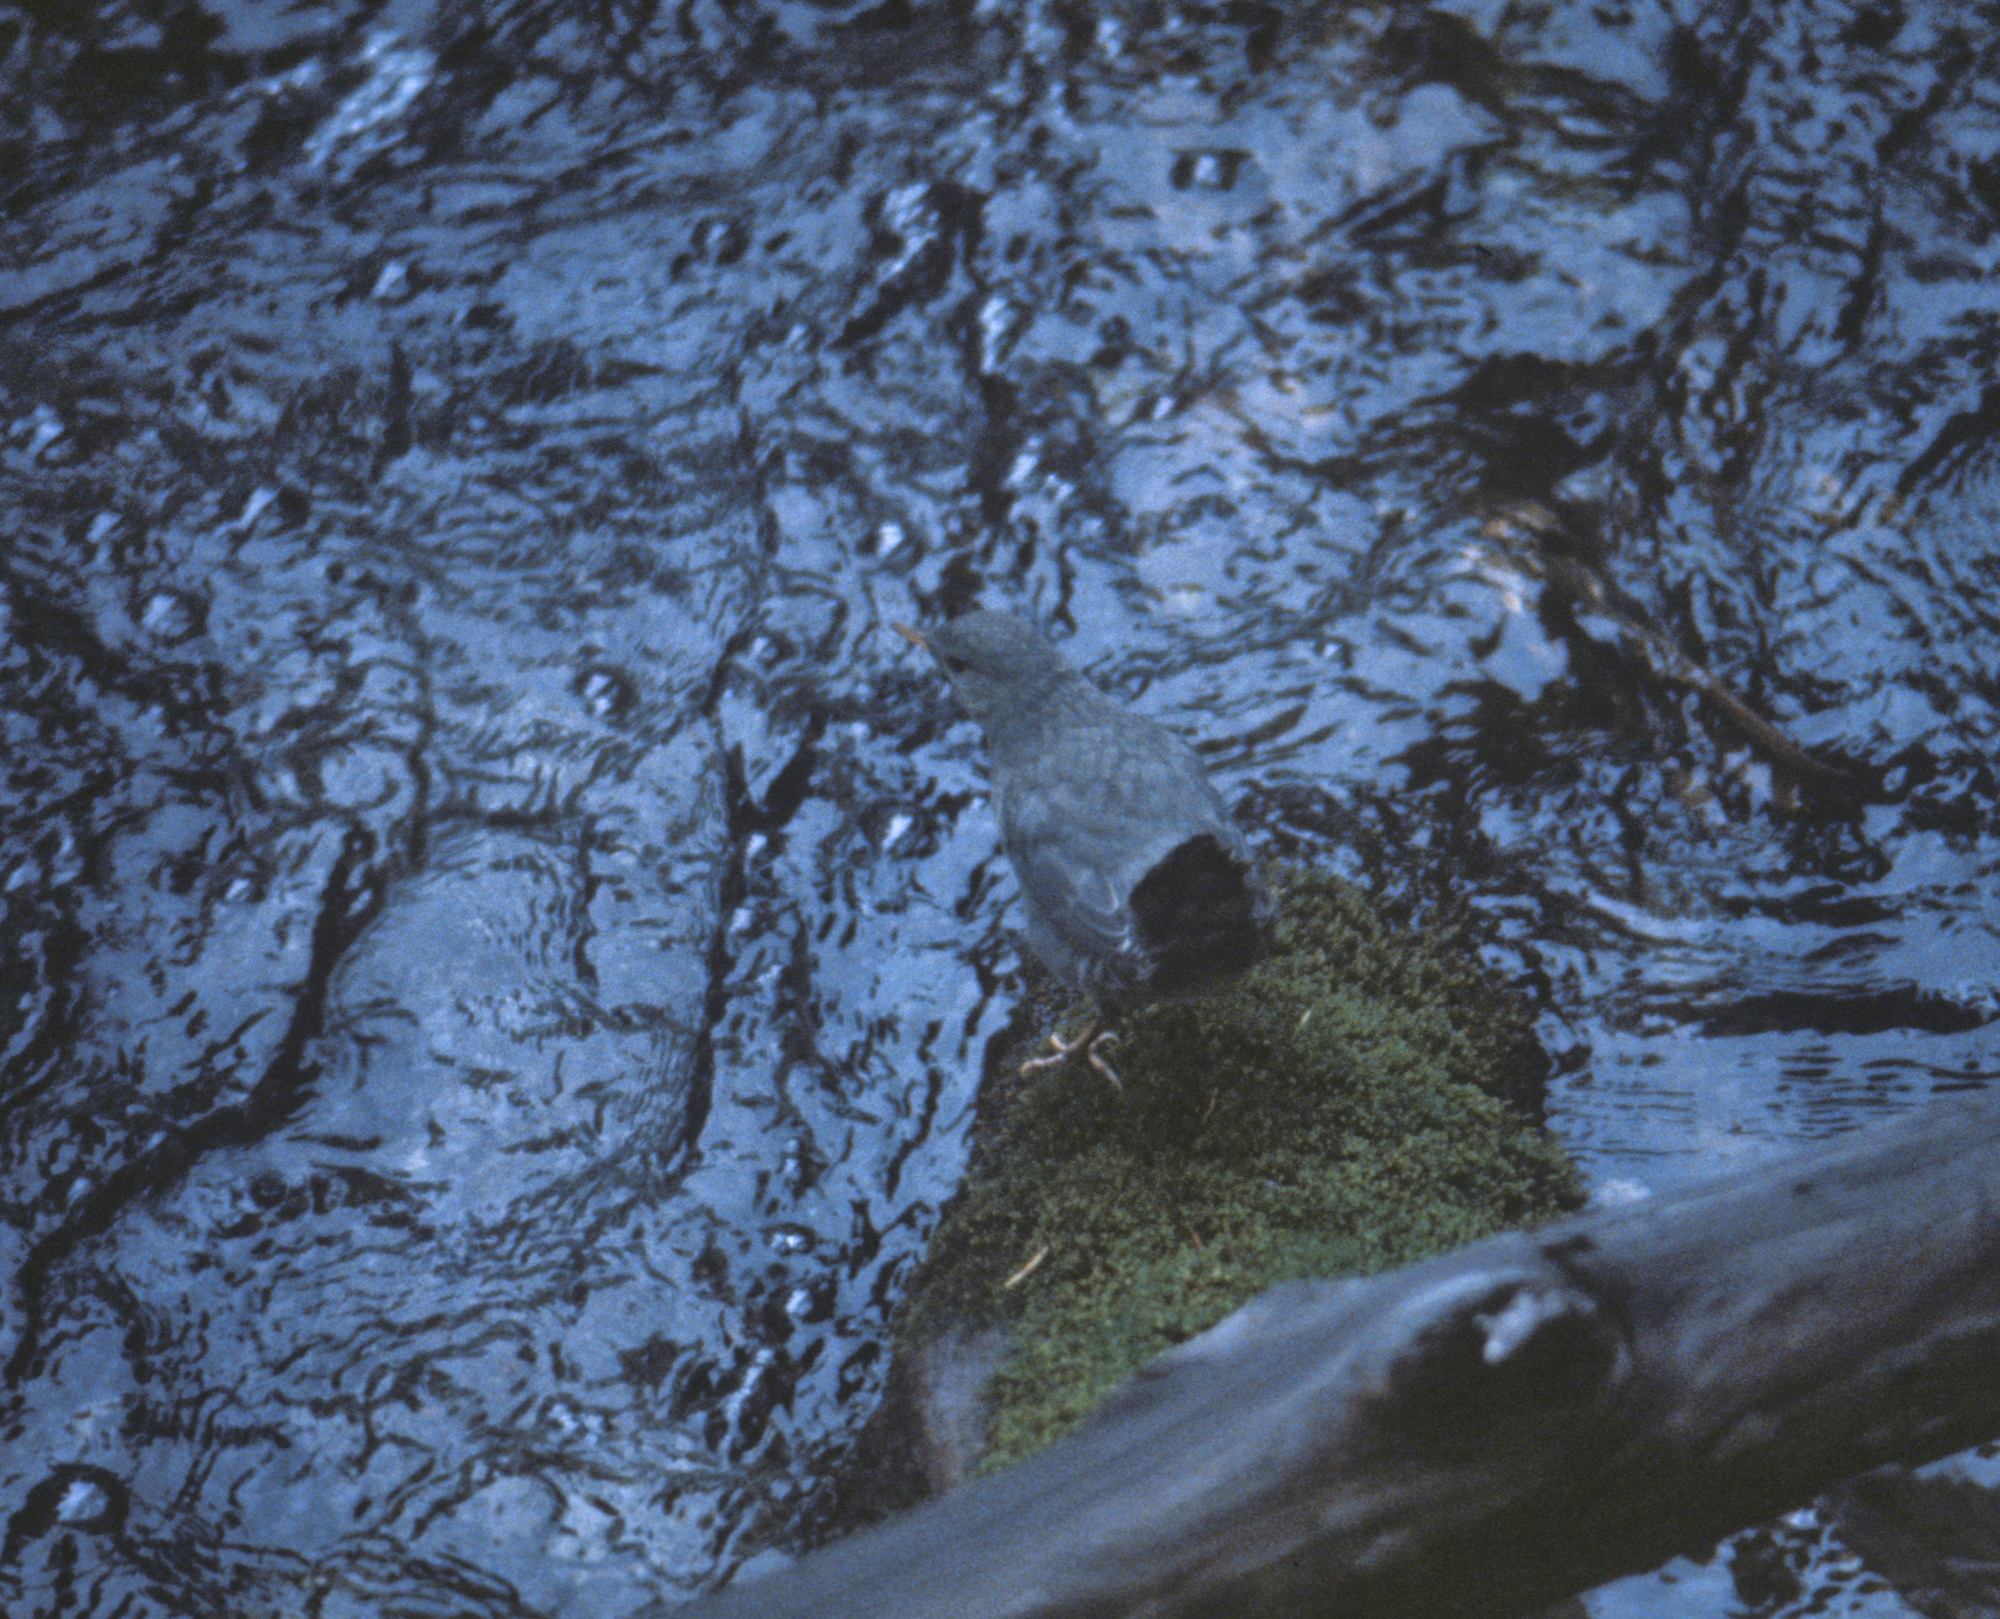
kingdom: Animalia
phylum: Chordata
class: Aves
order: Passeriformes
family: Cinclidae
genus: Cinclus
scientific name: Cinclus mexicanus
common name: American dipper
